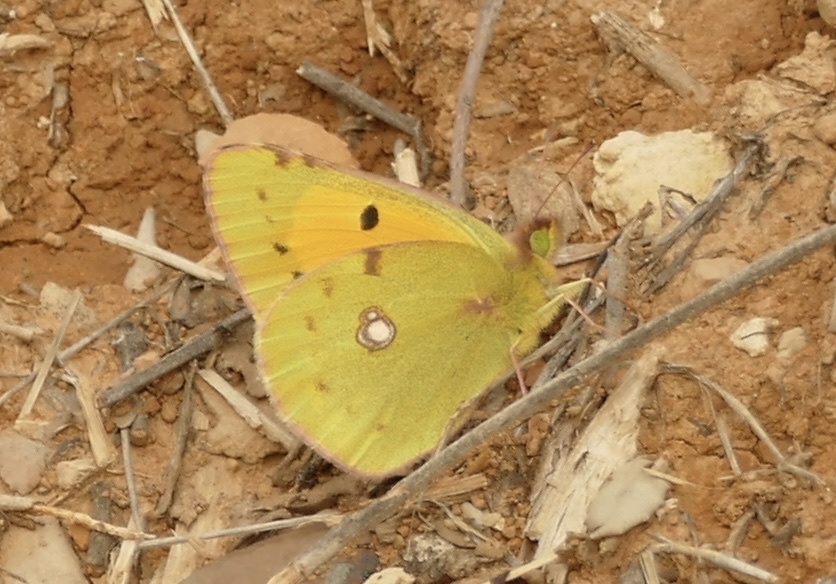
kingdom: Animalia
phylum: Arthropoda
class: Insecta
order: Lepidoptera
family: Pieridae
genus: Colias
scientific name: Colias croceus
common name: Clouded yellow
